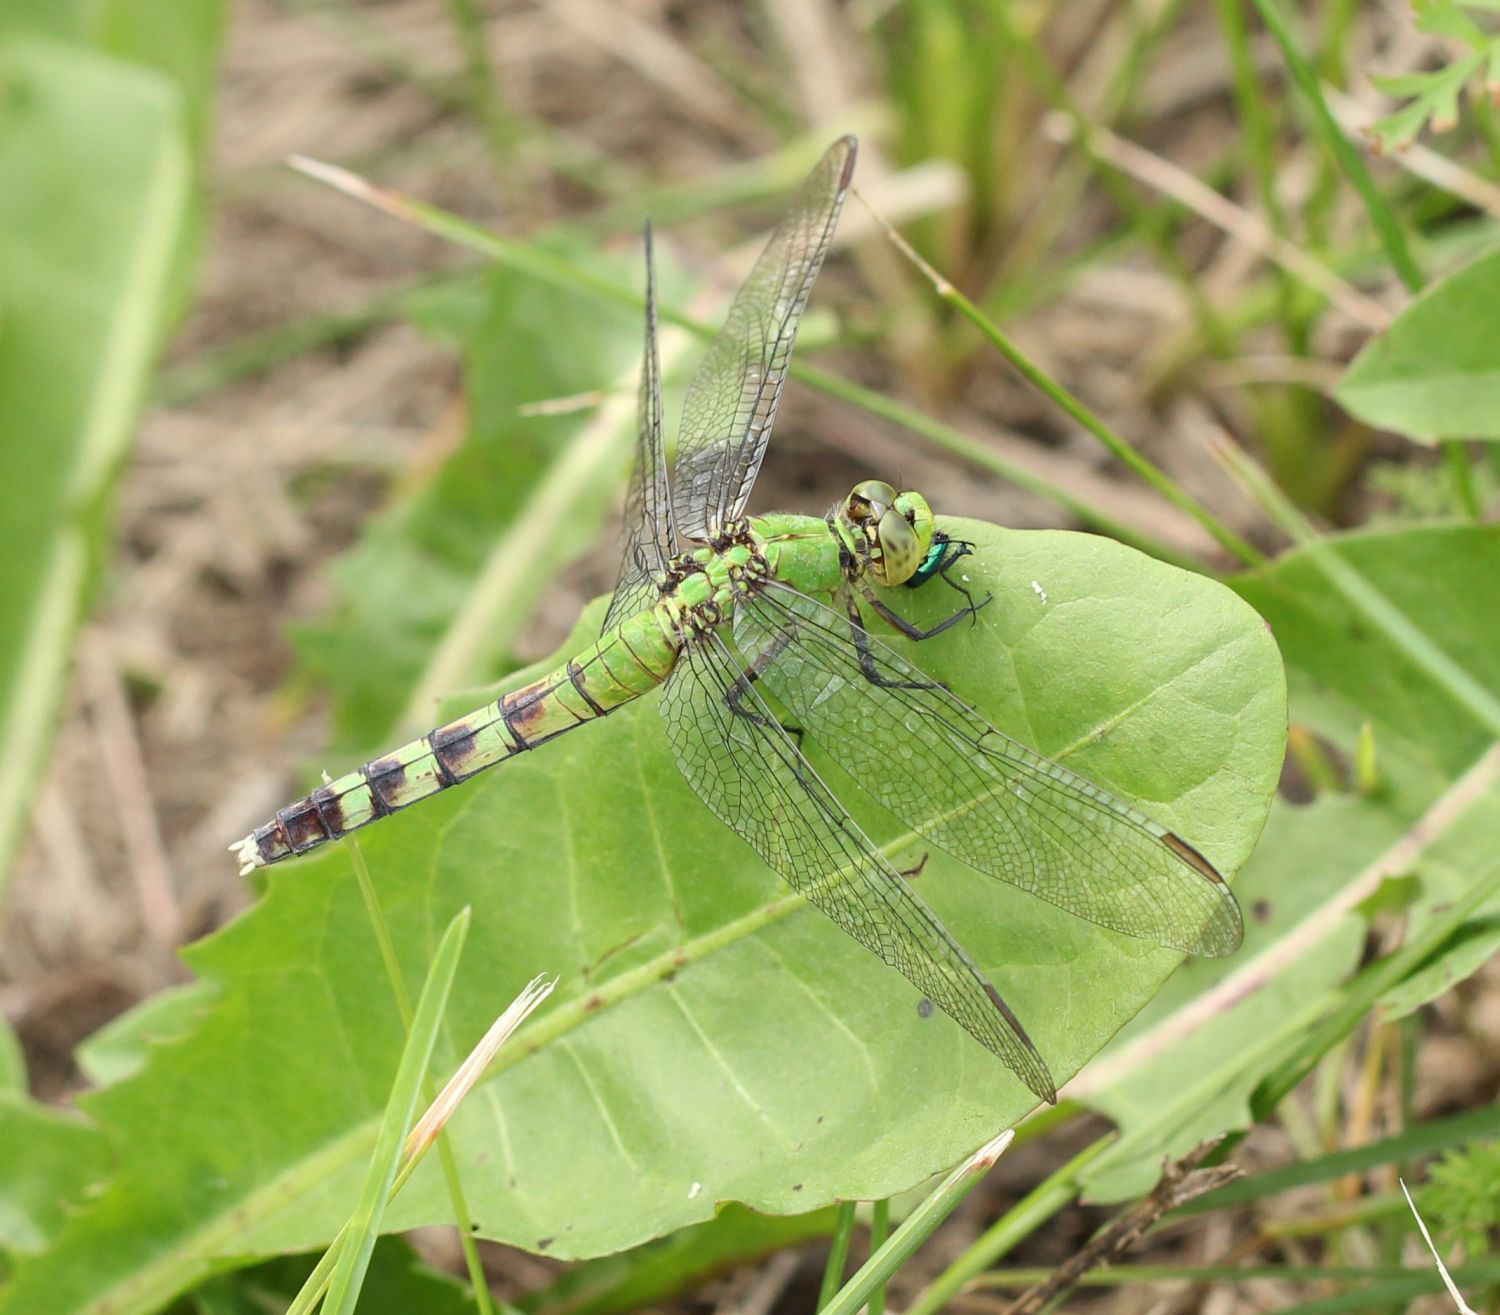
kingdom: Animalia
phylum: Arthropoda
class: Insecta
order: Odonata
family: Libellulidae
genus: Erythemis
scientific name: Erythemis simplicicollis
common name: Eastern pondhawk
